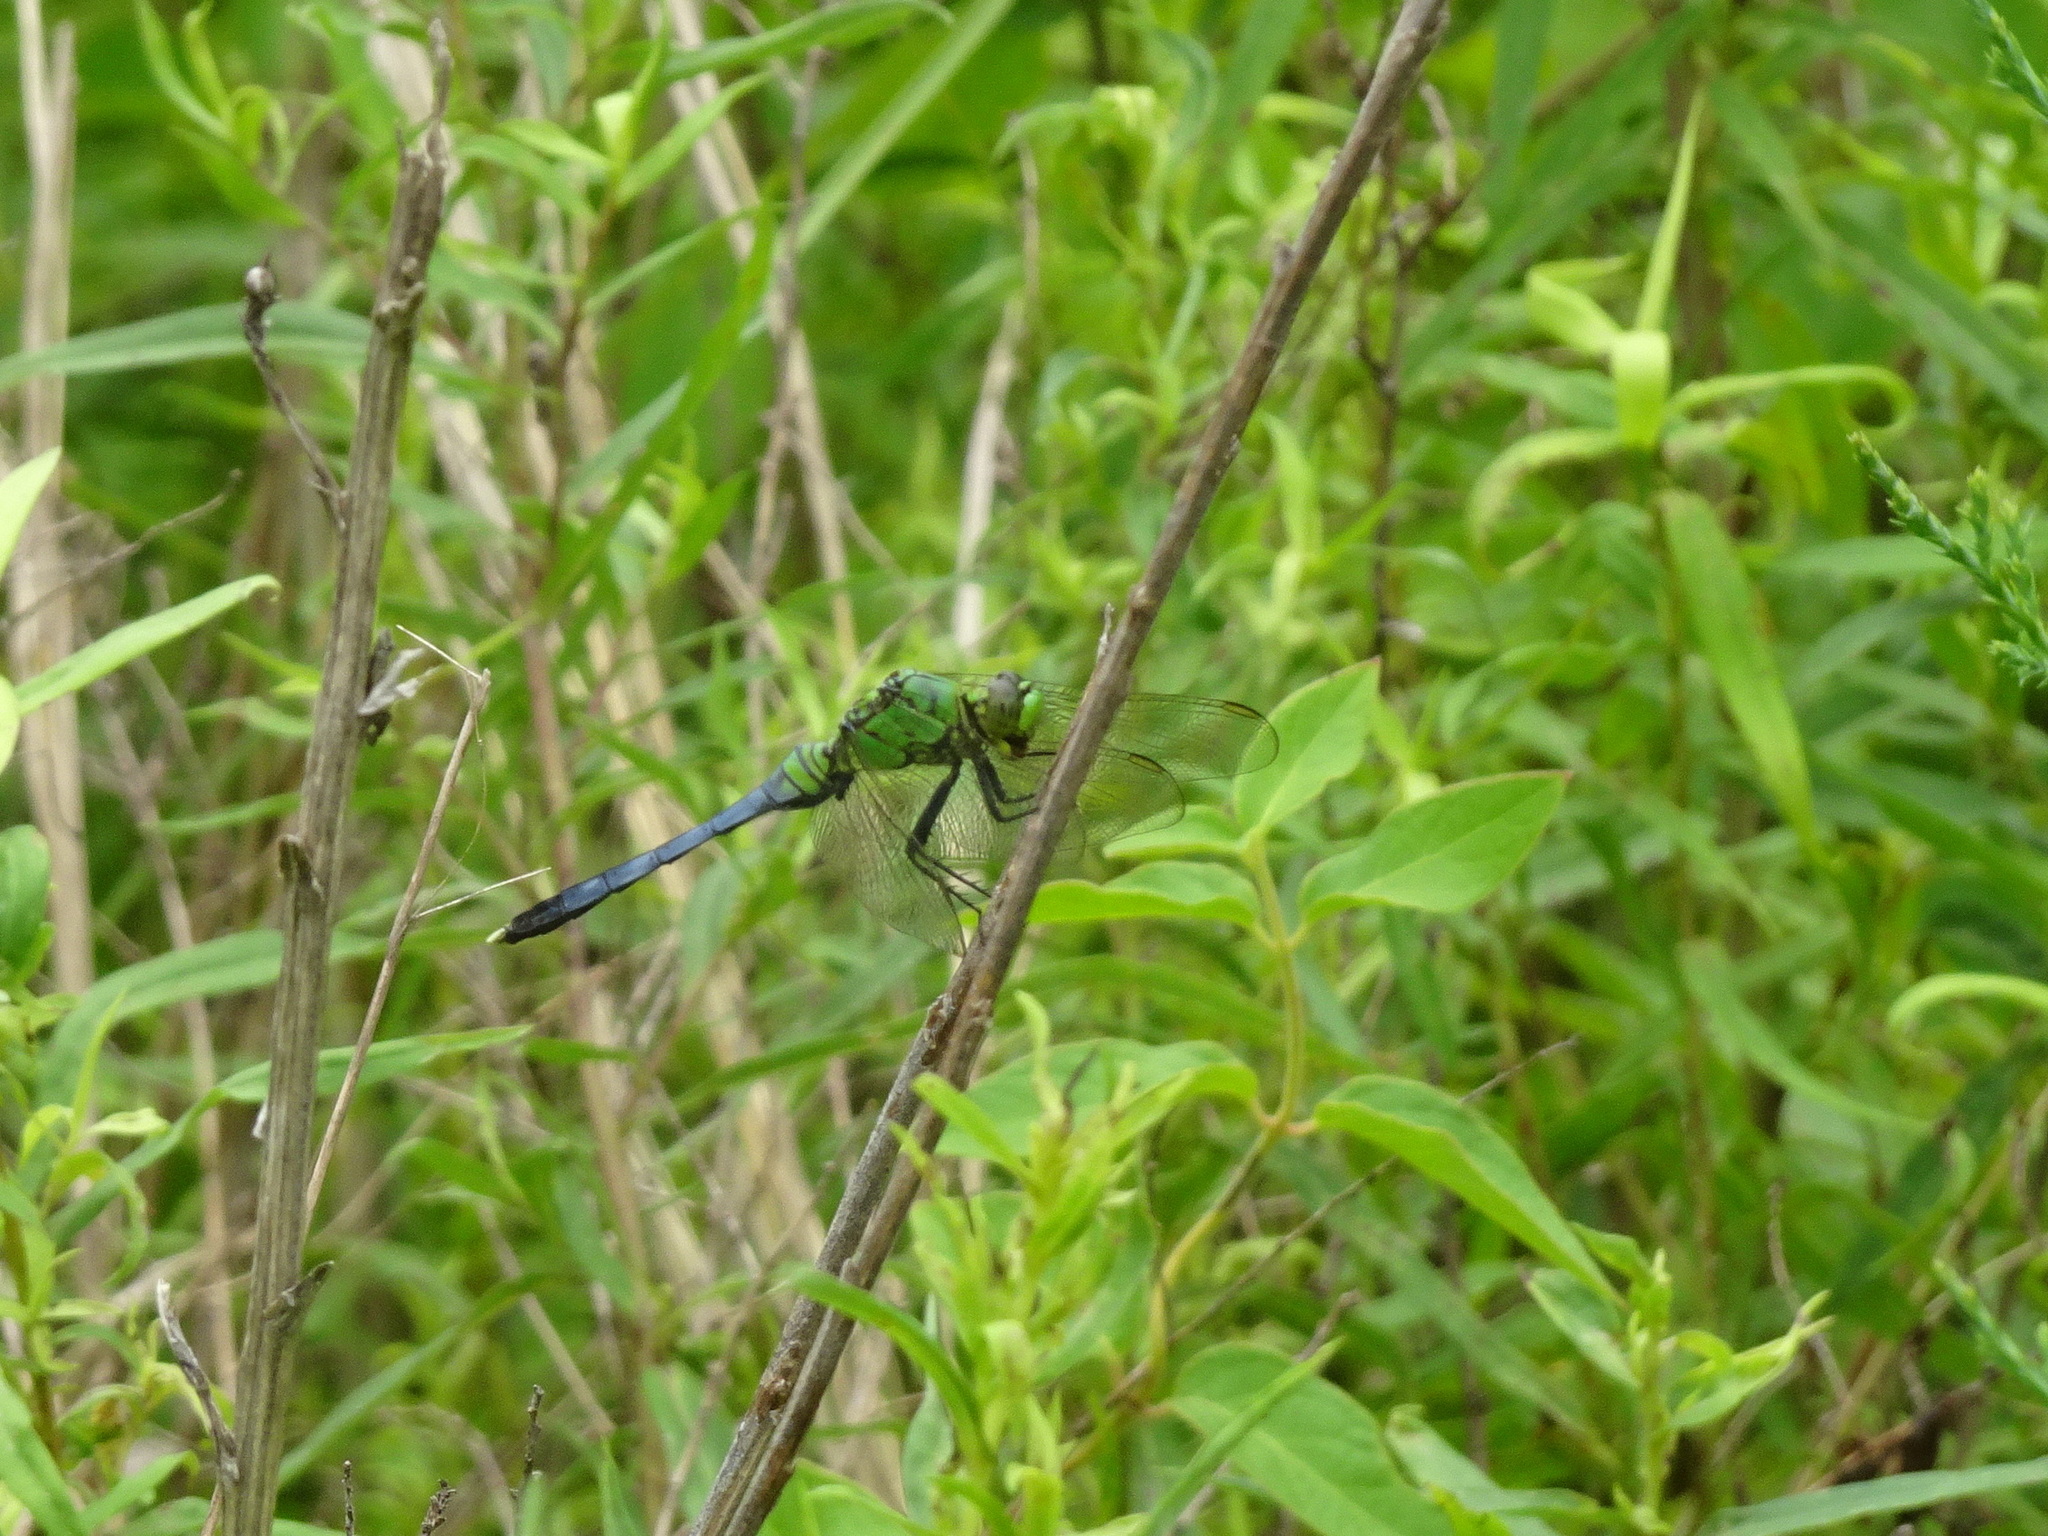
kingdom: Animalia
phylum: Arthropoda
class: Insecta
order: Odonata
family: Libellulidae
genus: Erythemis
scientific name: Erythemis simplicicollis
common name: Eastern pondhawk
